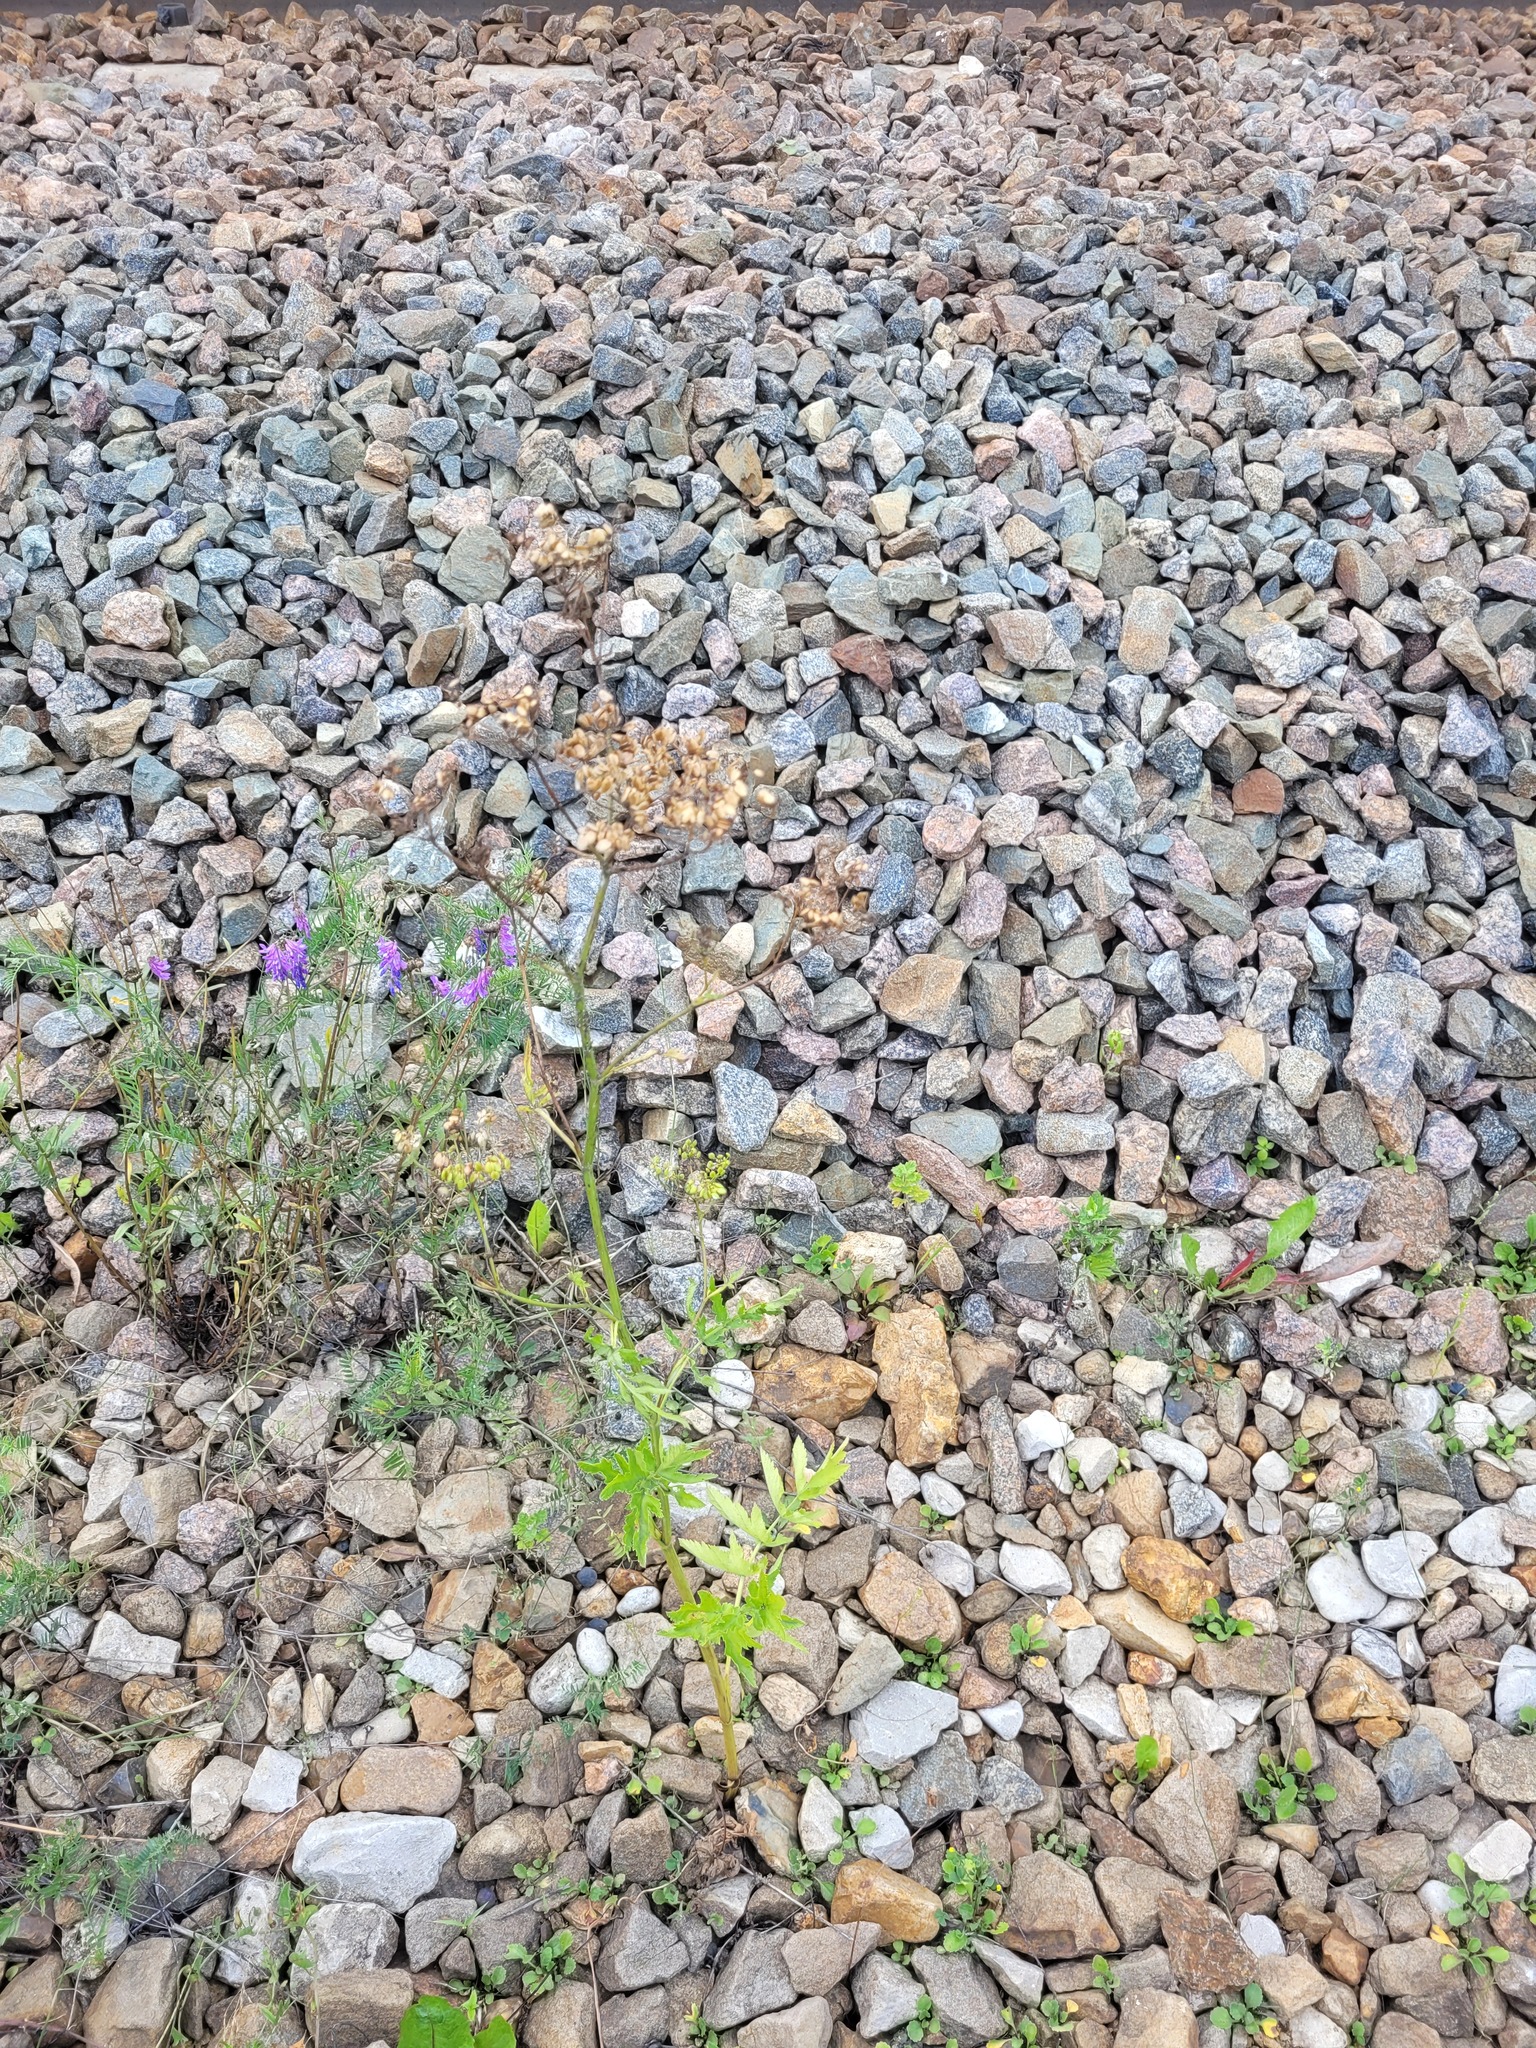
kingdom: Plantae
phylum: Tracheophyta
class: Magnoliopsida
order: Apiales
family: Apiaceae
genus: Pastinaca
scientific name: Pastinaca sativa
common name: Wild parsnip
